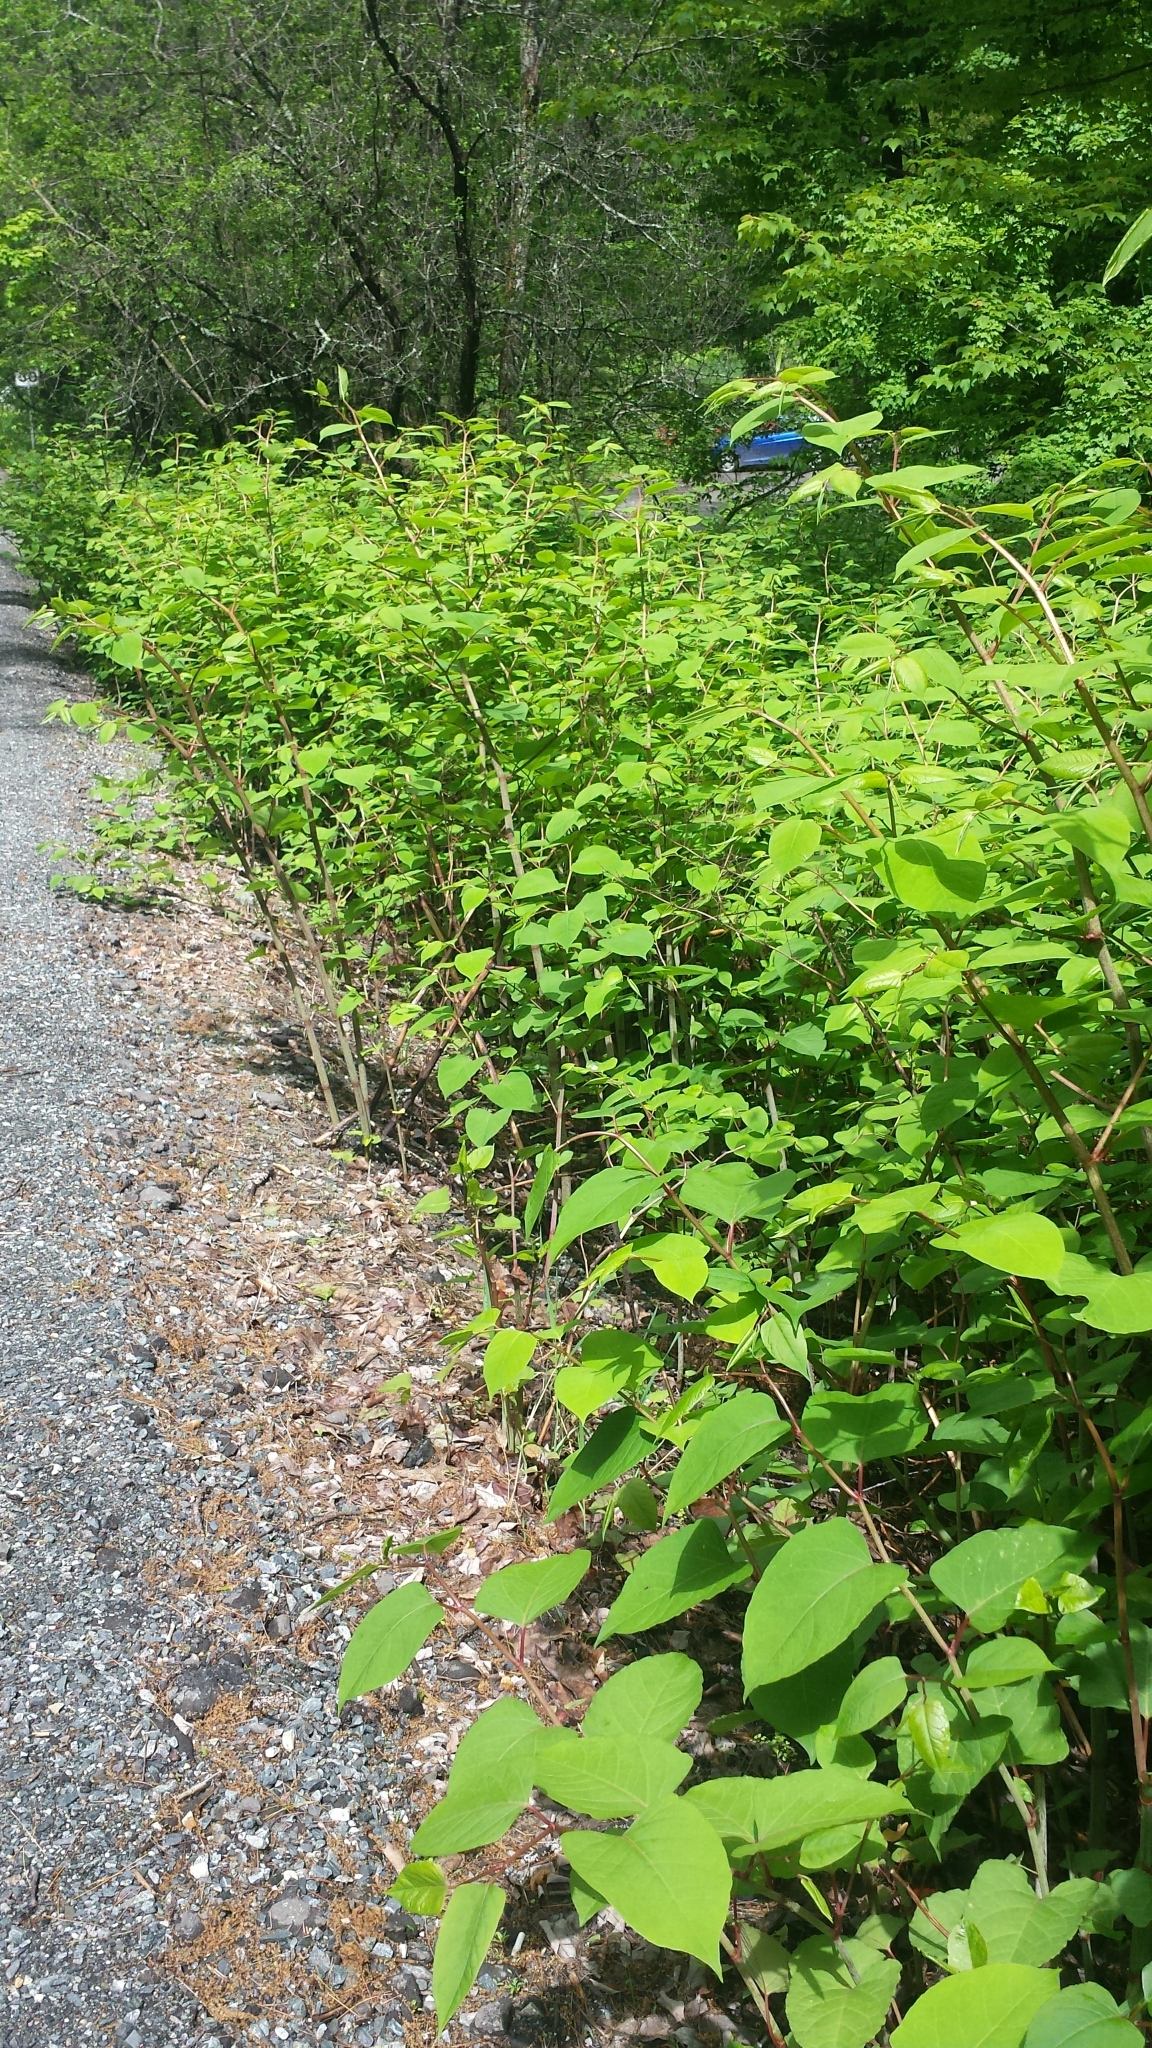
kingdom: Plantae
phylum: Tracheophyta
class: Magnoliopsida
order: Caryophyllales
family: Polygonaceae
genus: Reynoutria
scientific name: Reynoutria japonica
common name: Japanese knotweed
